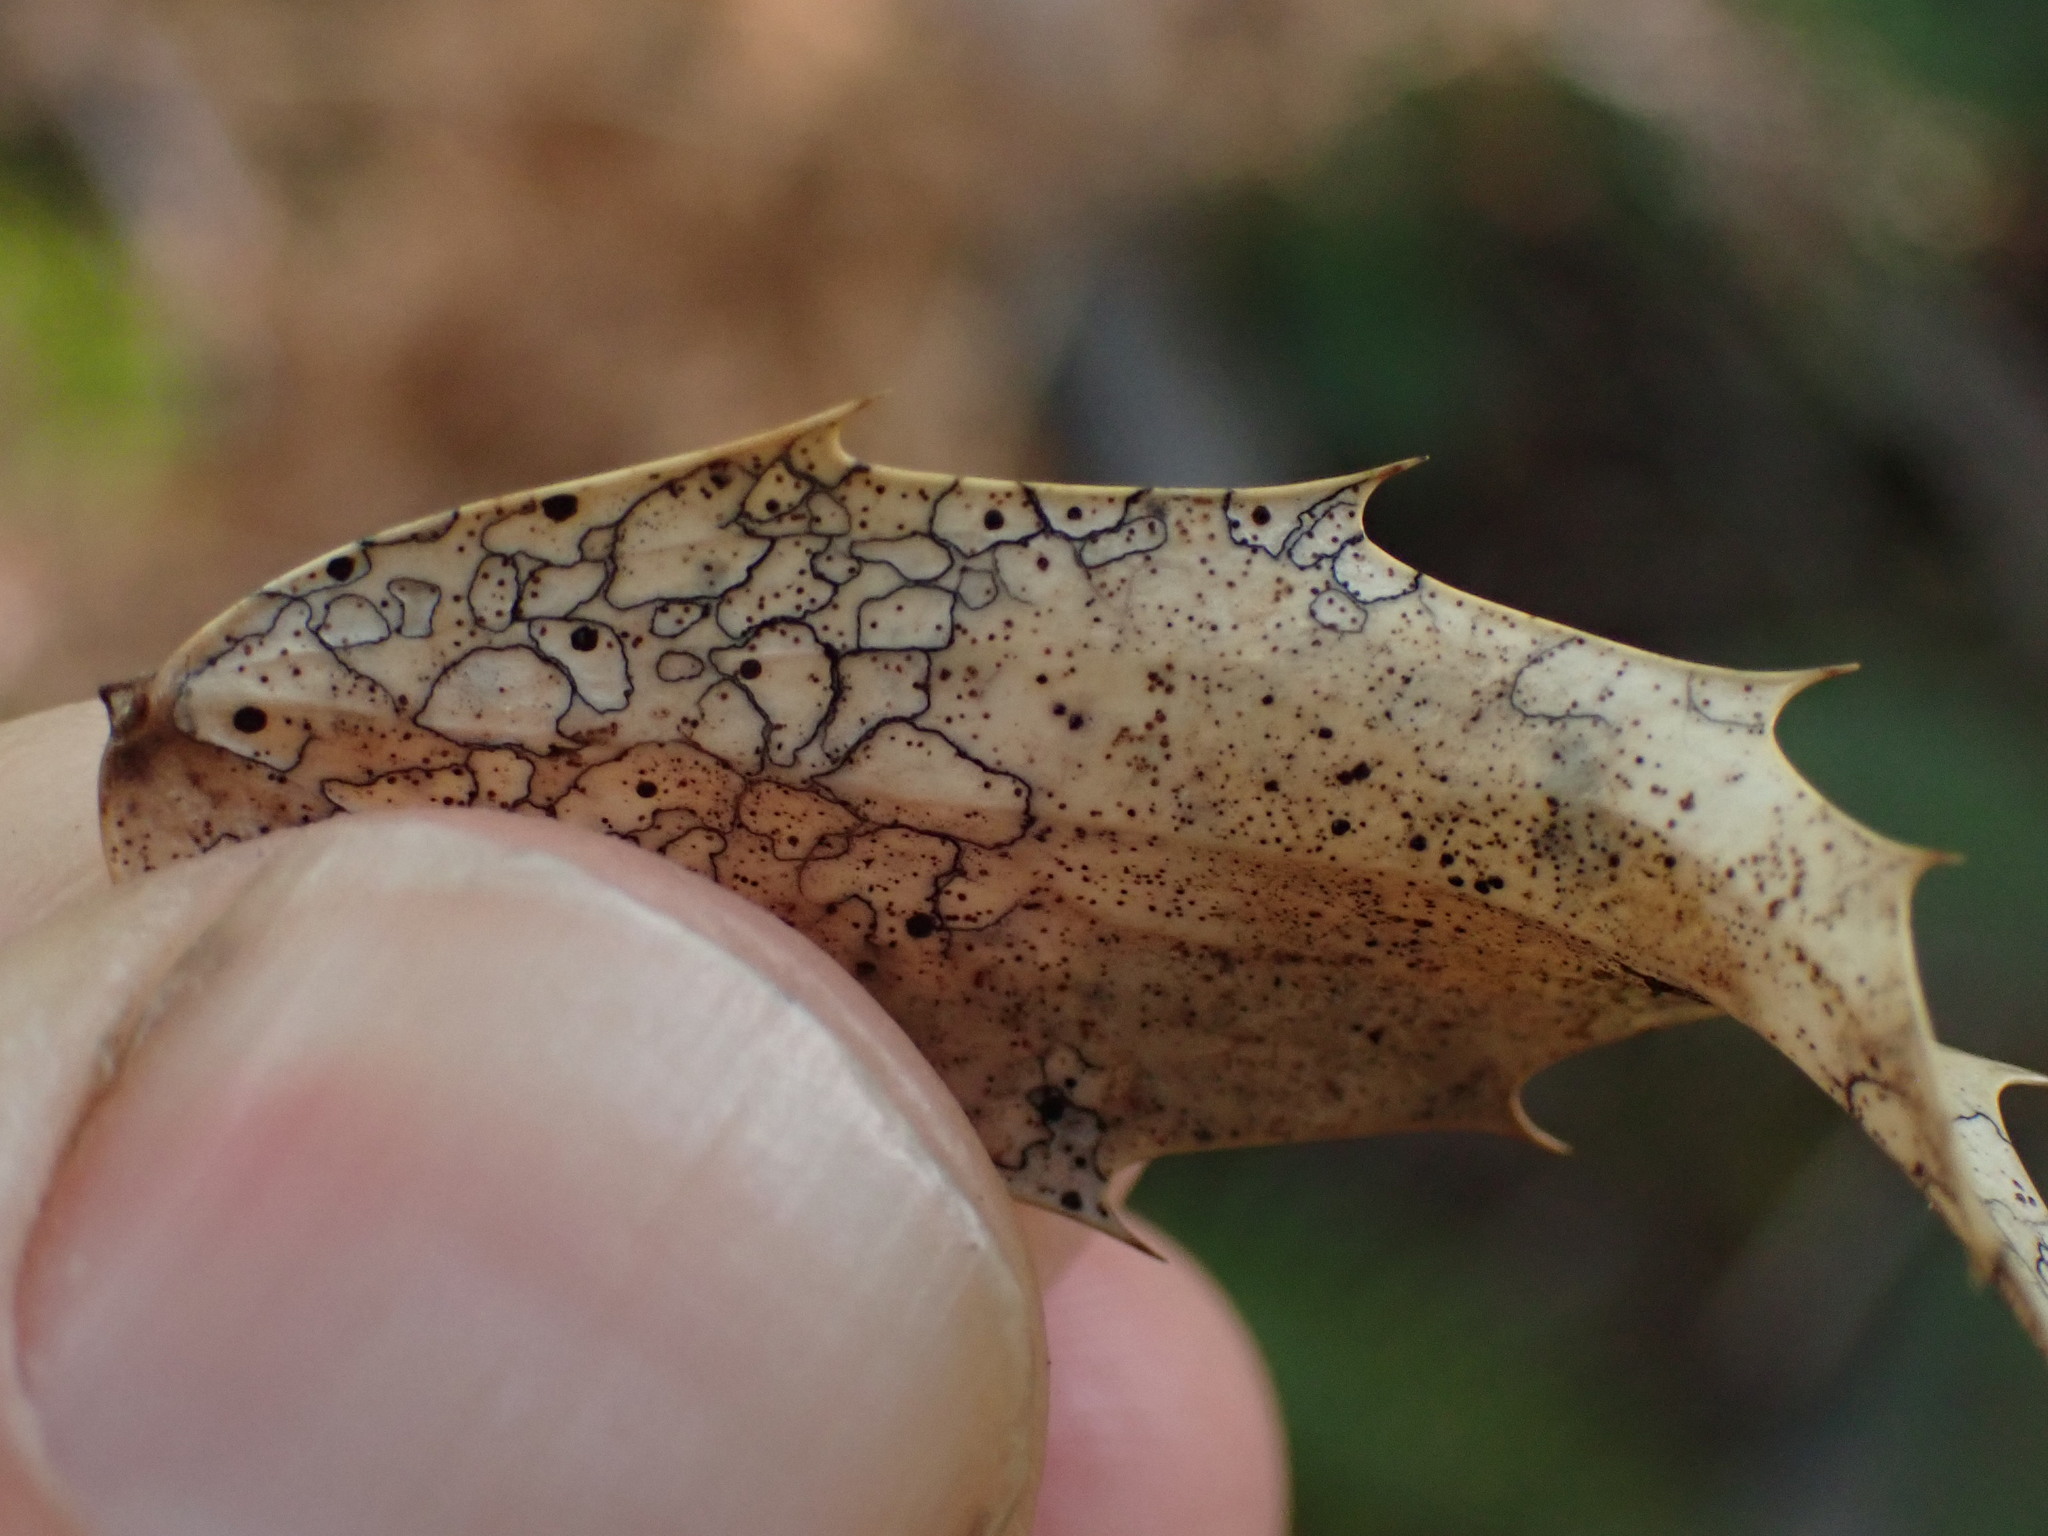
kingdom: Fungi
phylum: Ascomycota
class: Leotiomycetes
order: Rhytismatales
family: Rhytismataceae
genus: Coccomyces
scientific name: Coccomyces dentatus
